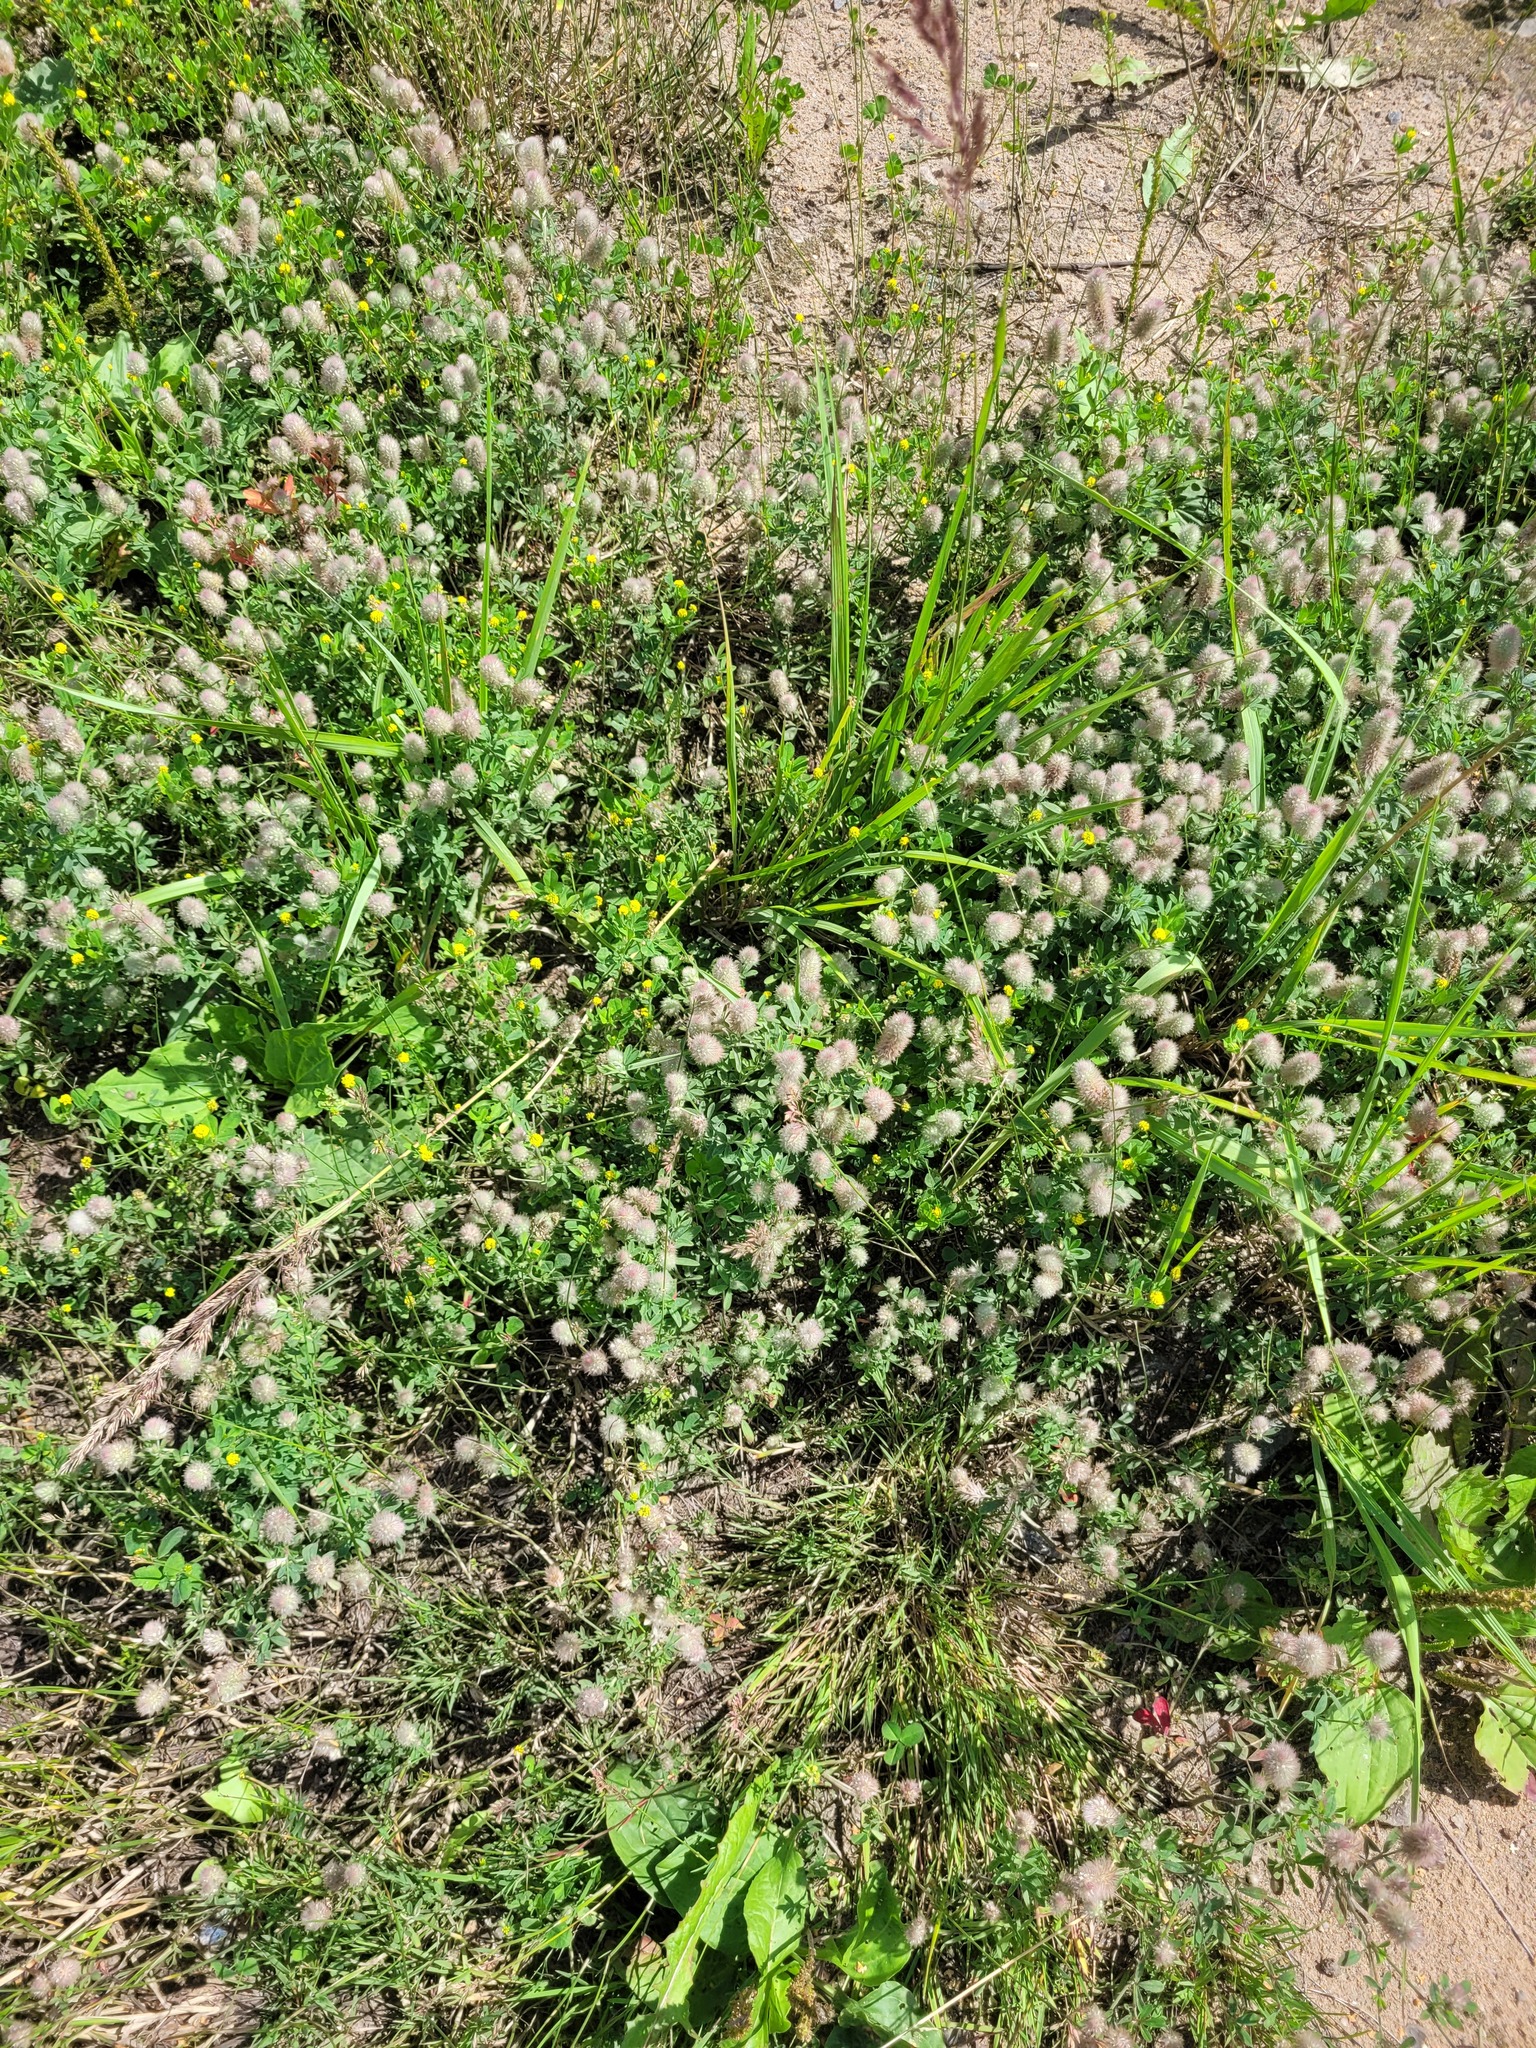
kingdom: Plantae
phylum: Tracheophyta
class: Magnoliopsida
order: Fabales
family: Fabaceae
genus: Trifolium
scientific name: Trifolium arvense
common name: Hare's-foot clover
